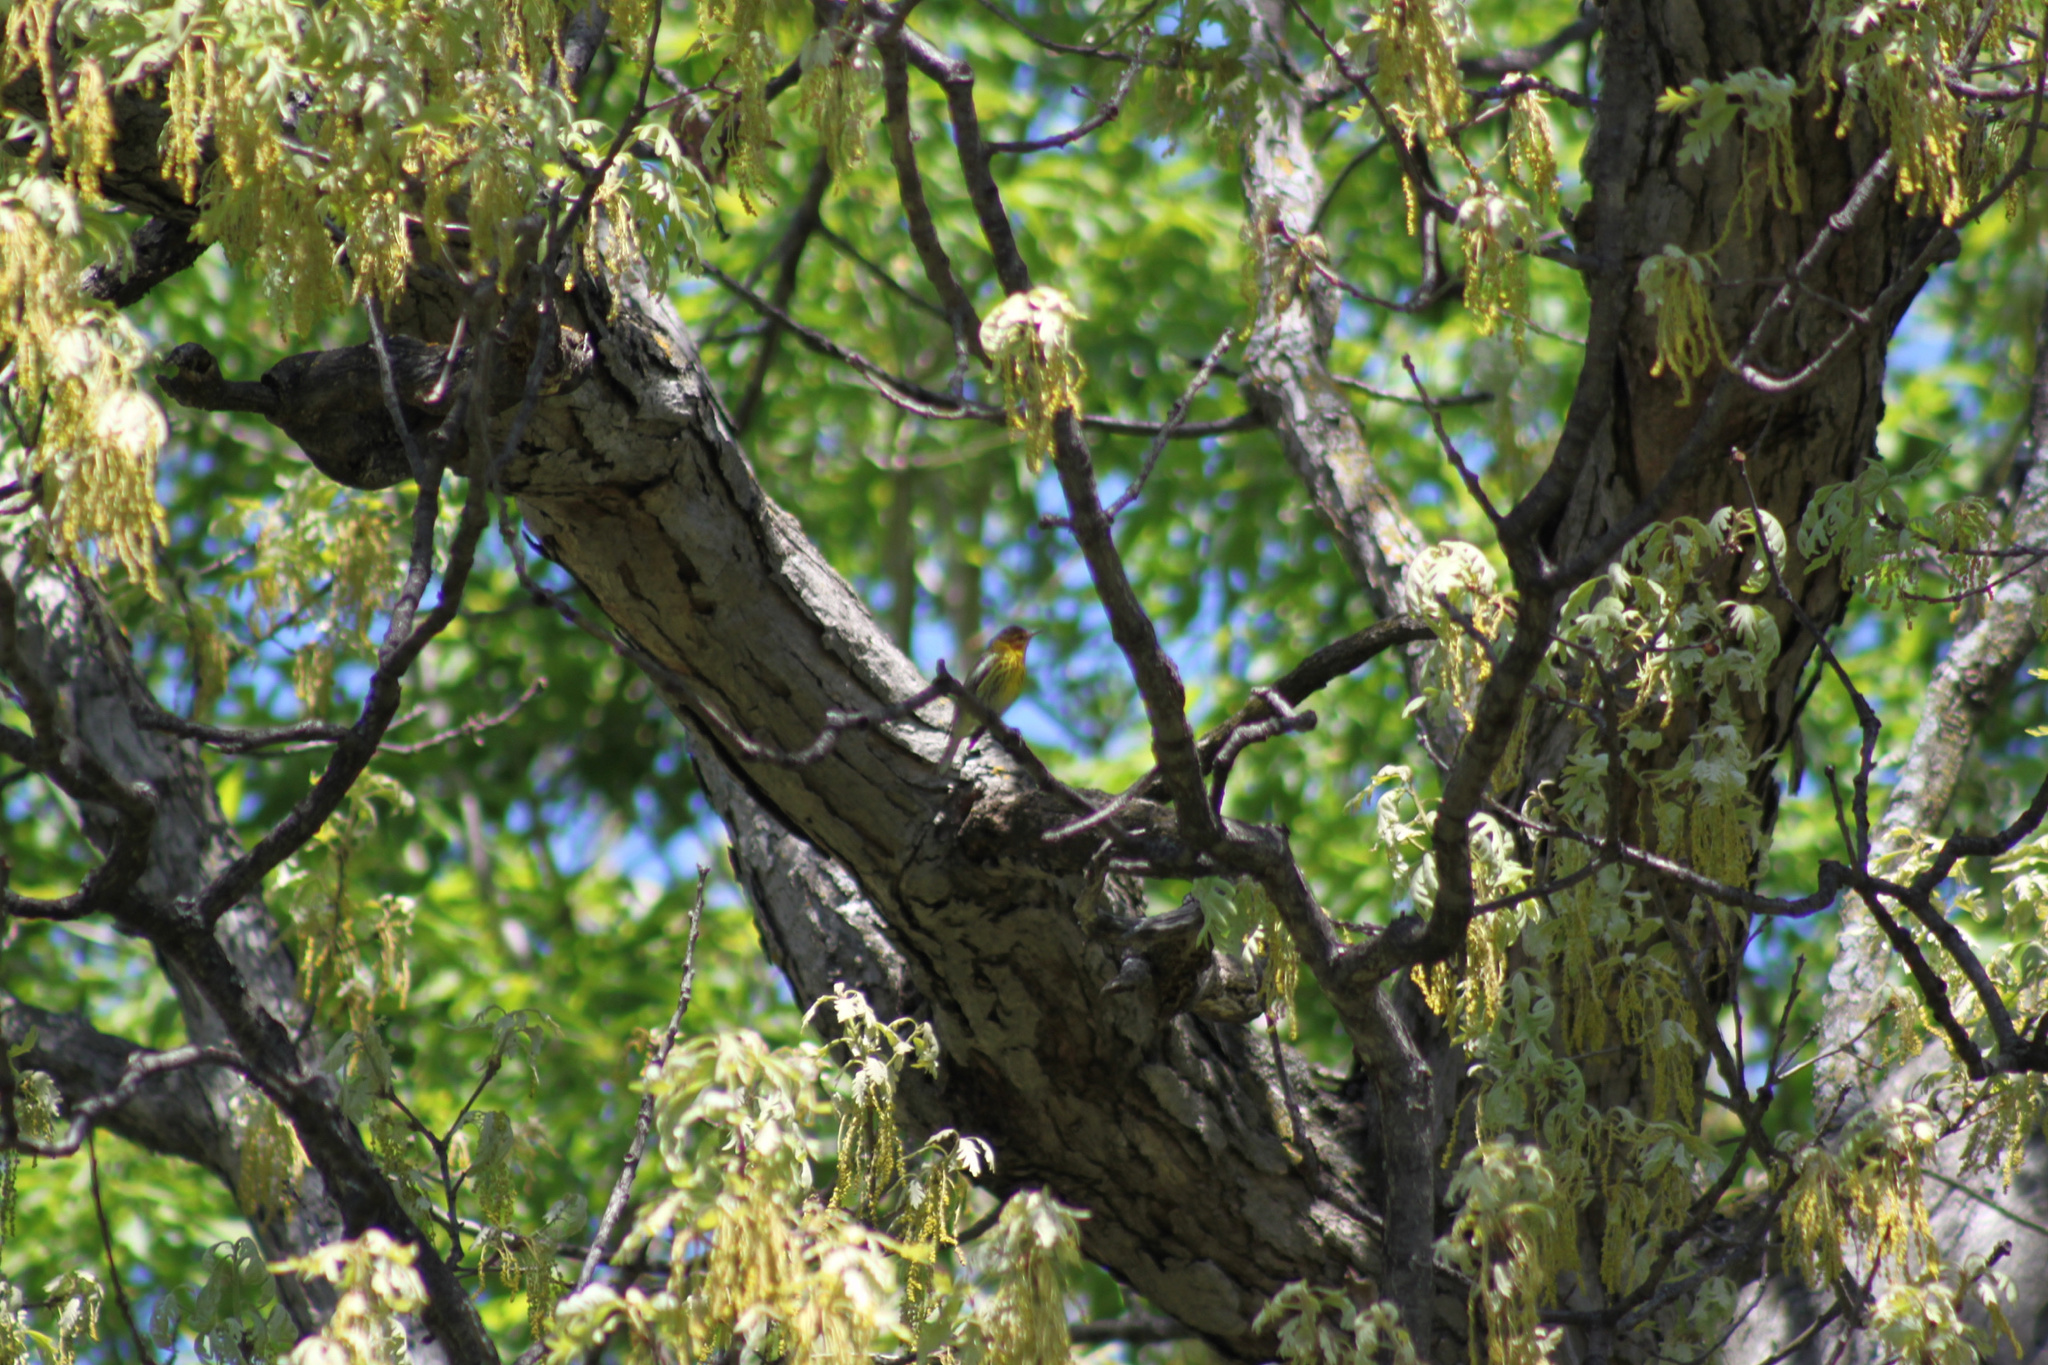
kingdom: Animalia
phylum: Chordata
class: Aves
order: Passeriformes
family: Parulidae
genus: Setophaga
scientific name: Setophaga tigrina
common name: Cape may warbler
